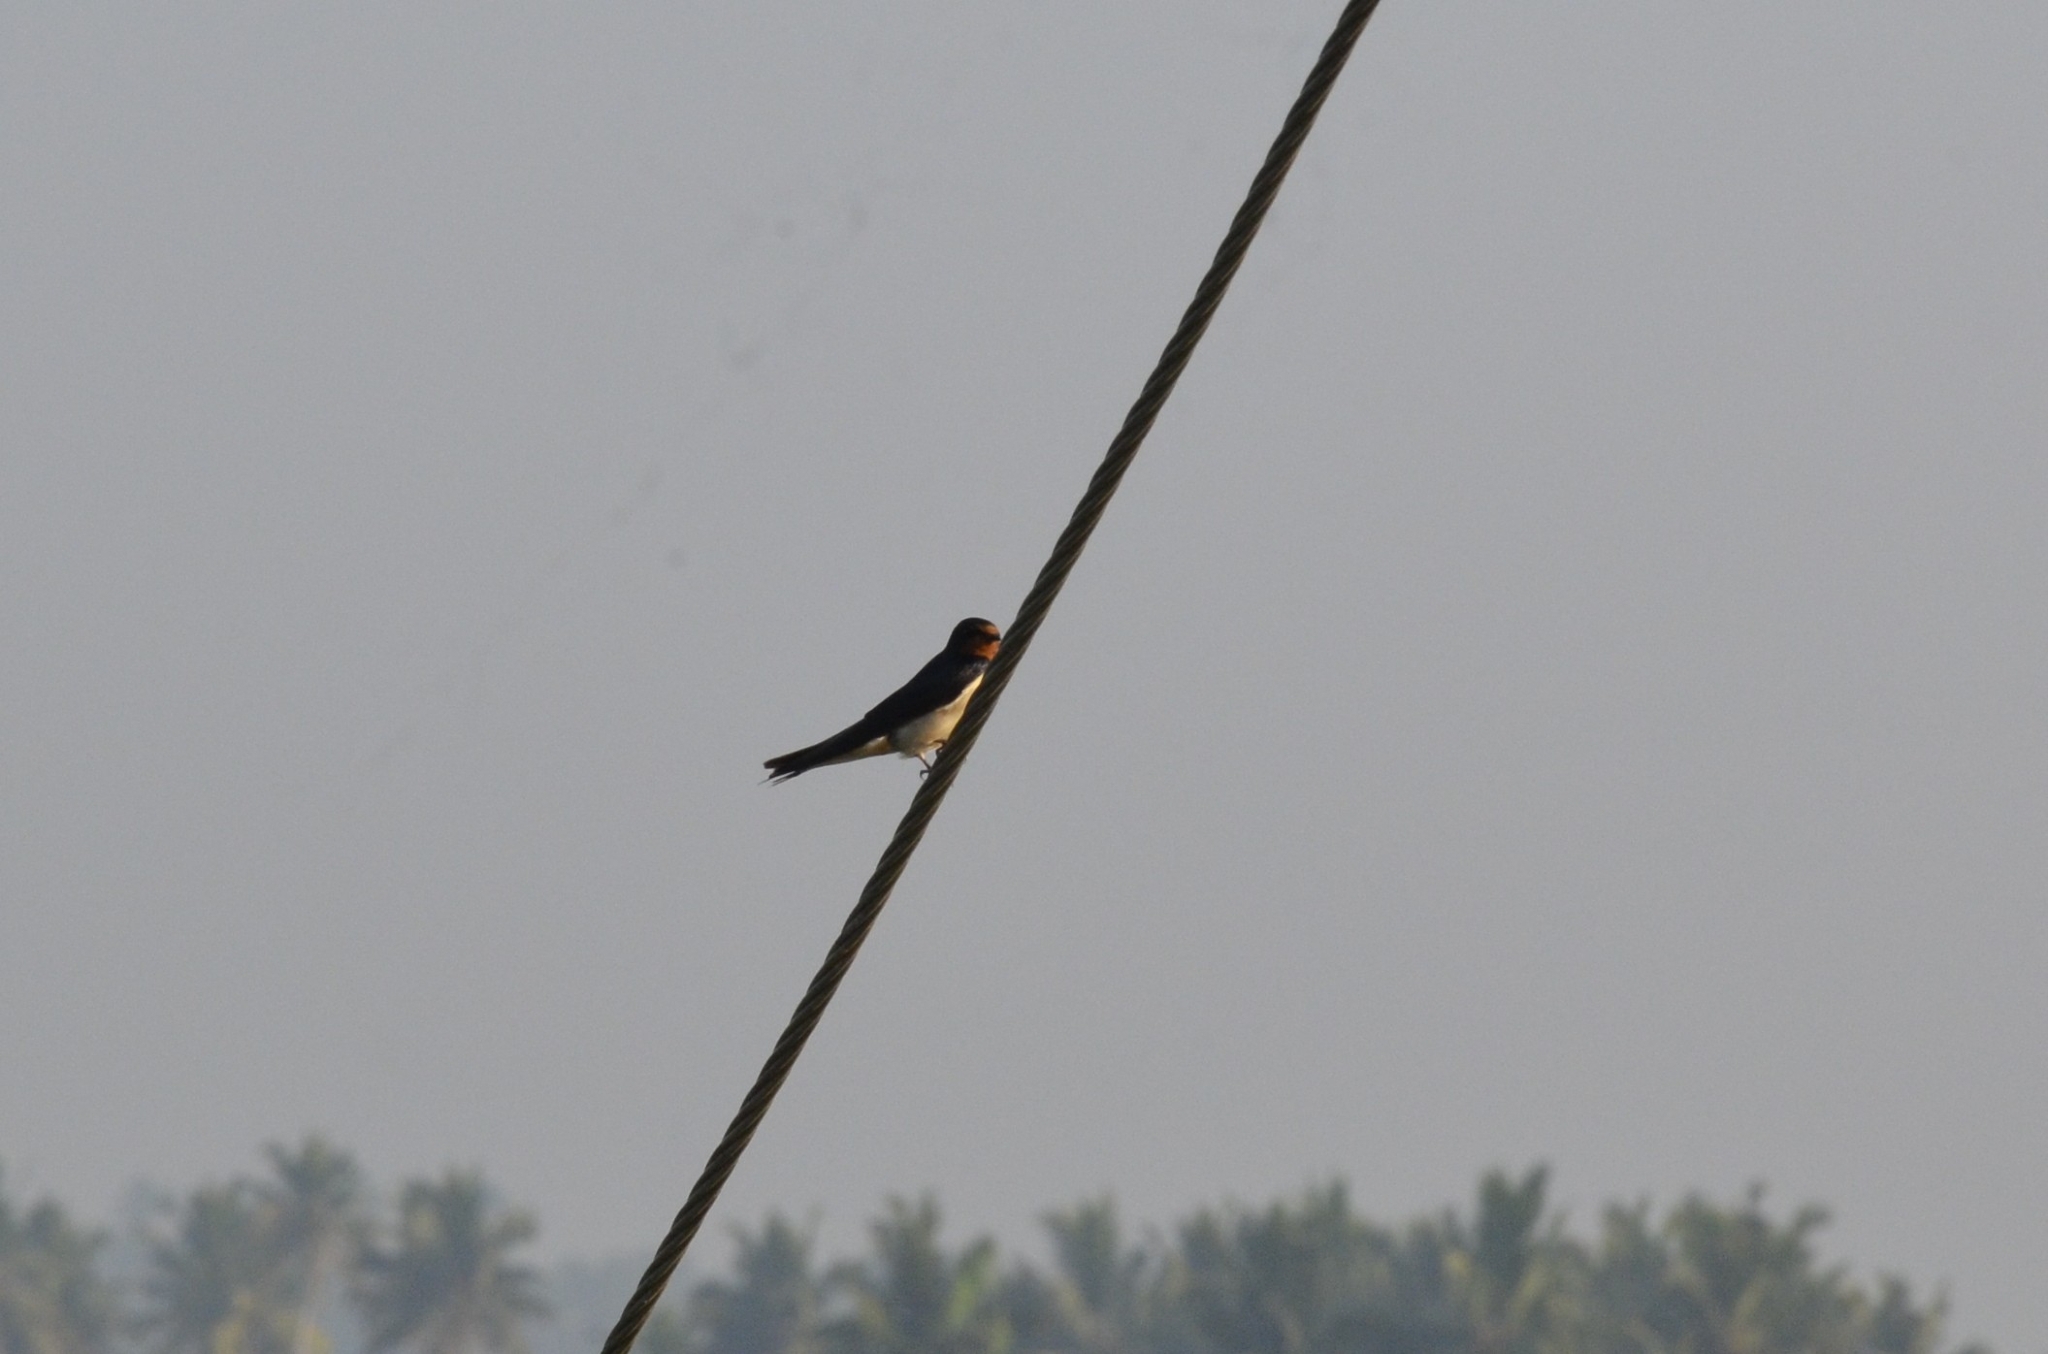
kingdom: Animalia
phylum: Chordata
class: Aves
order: Passeriformes
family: Hirundinidae
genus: Hirundo
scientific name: Hirundo rustica
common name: Barn swallow
